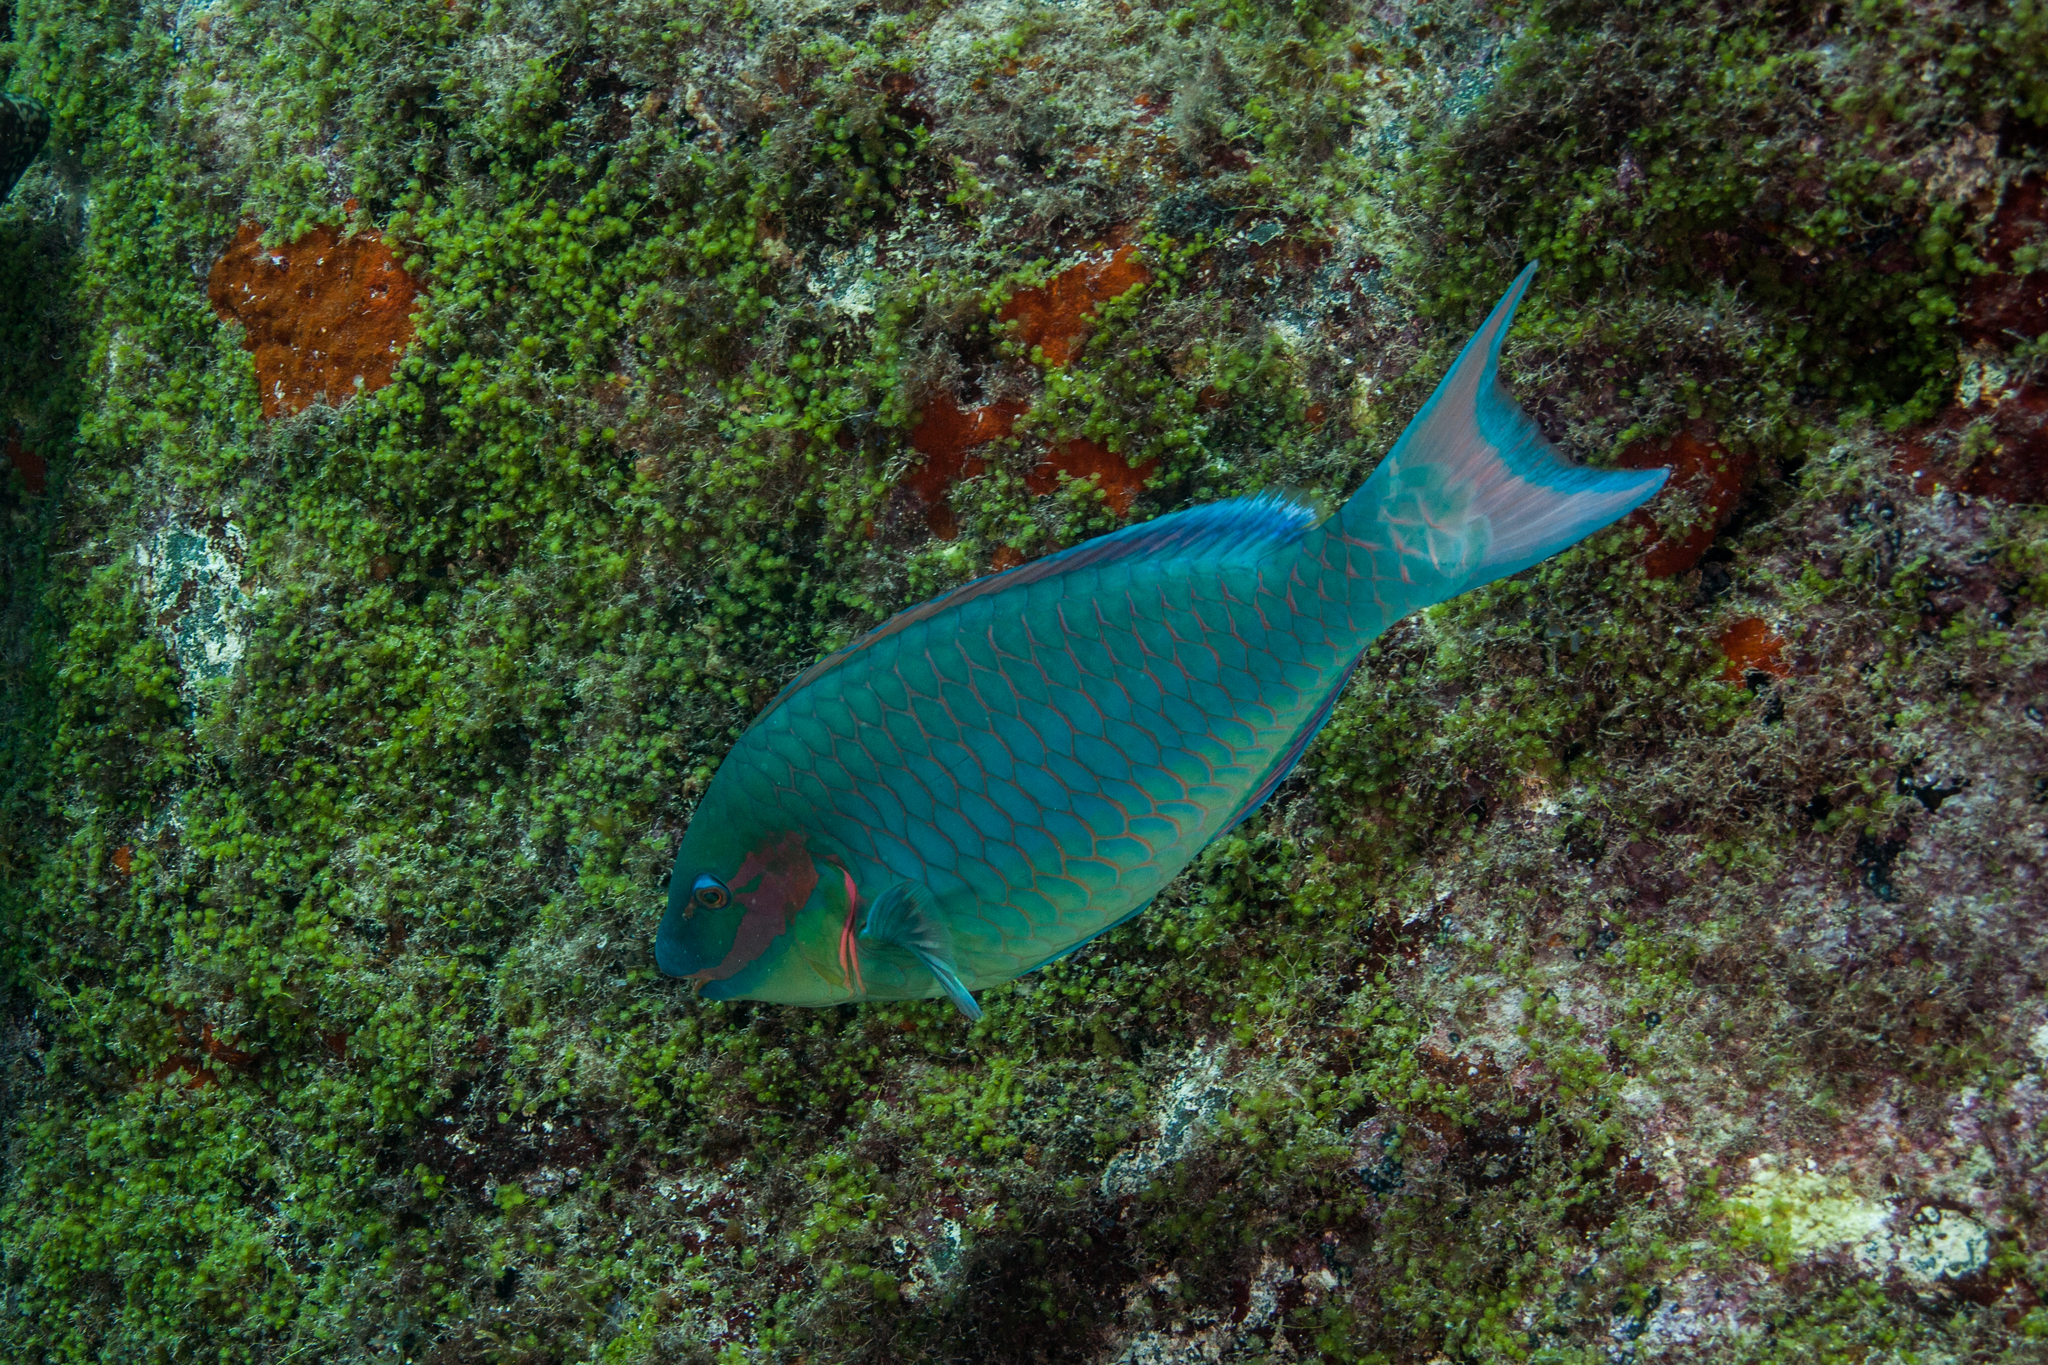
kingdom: Animalia
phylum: Chordata
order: Perciformes
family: Scaridae
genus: Sparisoma
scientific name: Sparisoma viride
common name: Stoplight parrotfish
